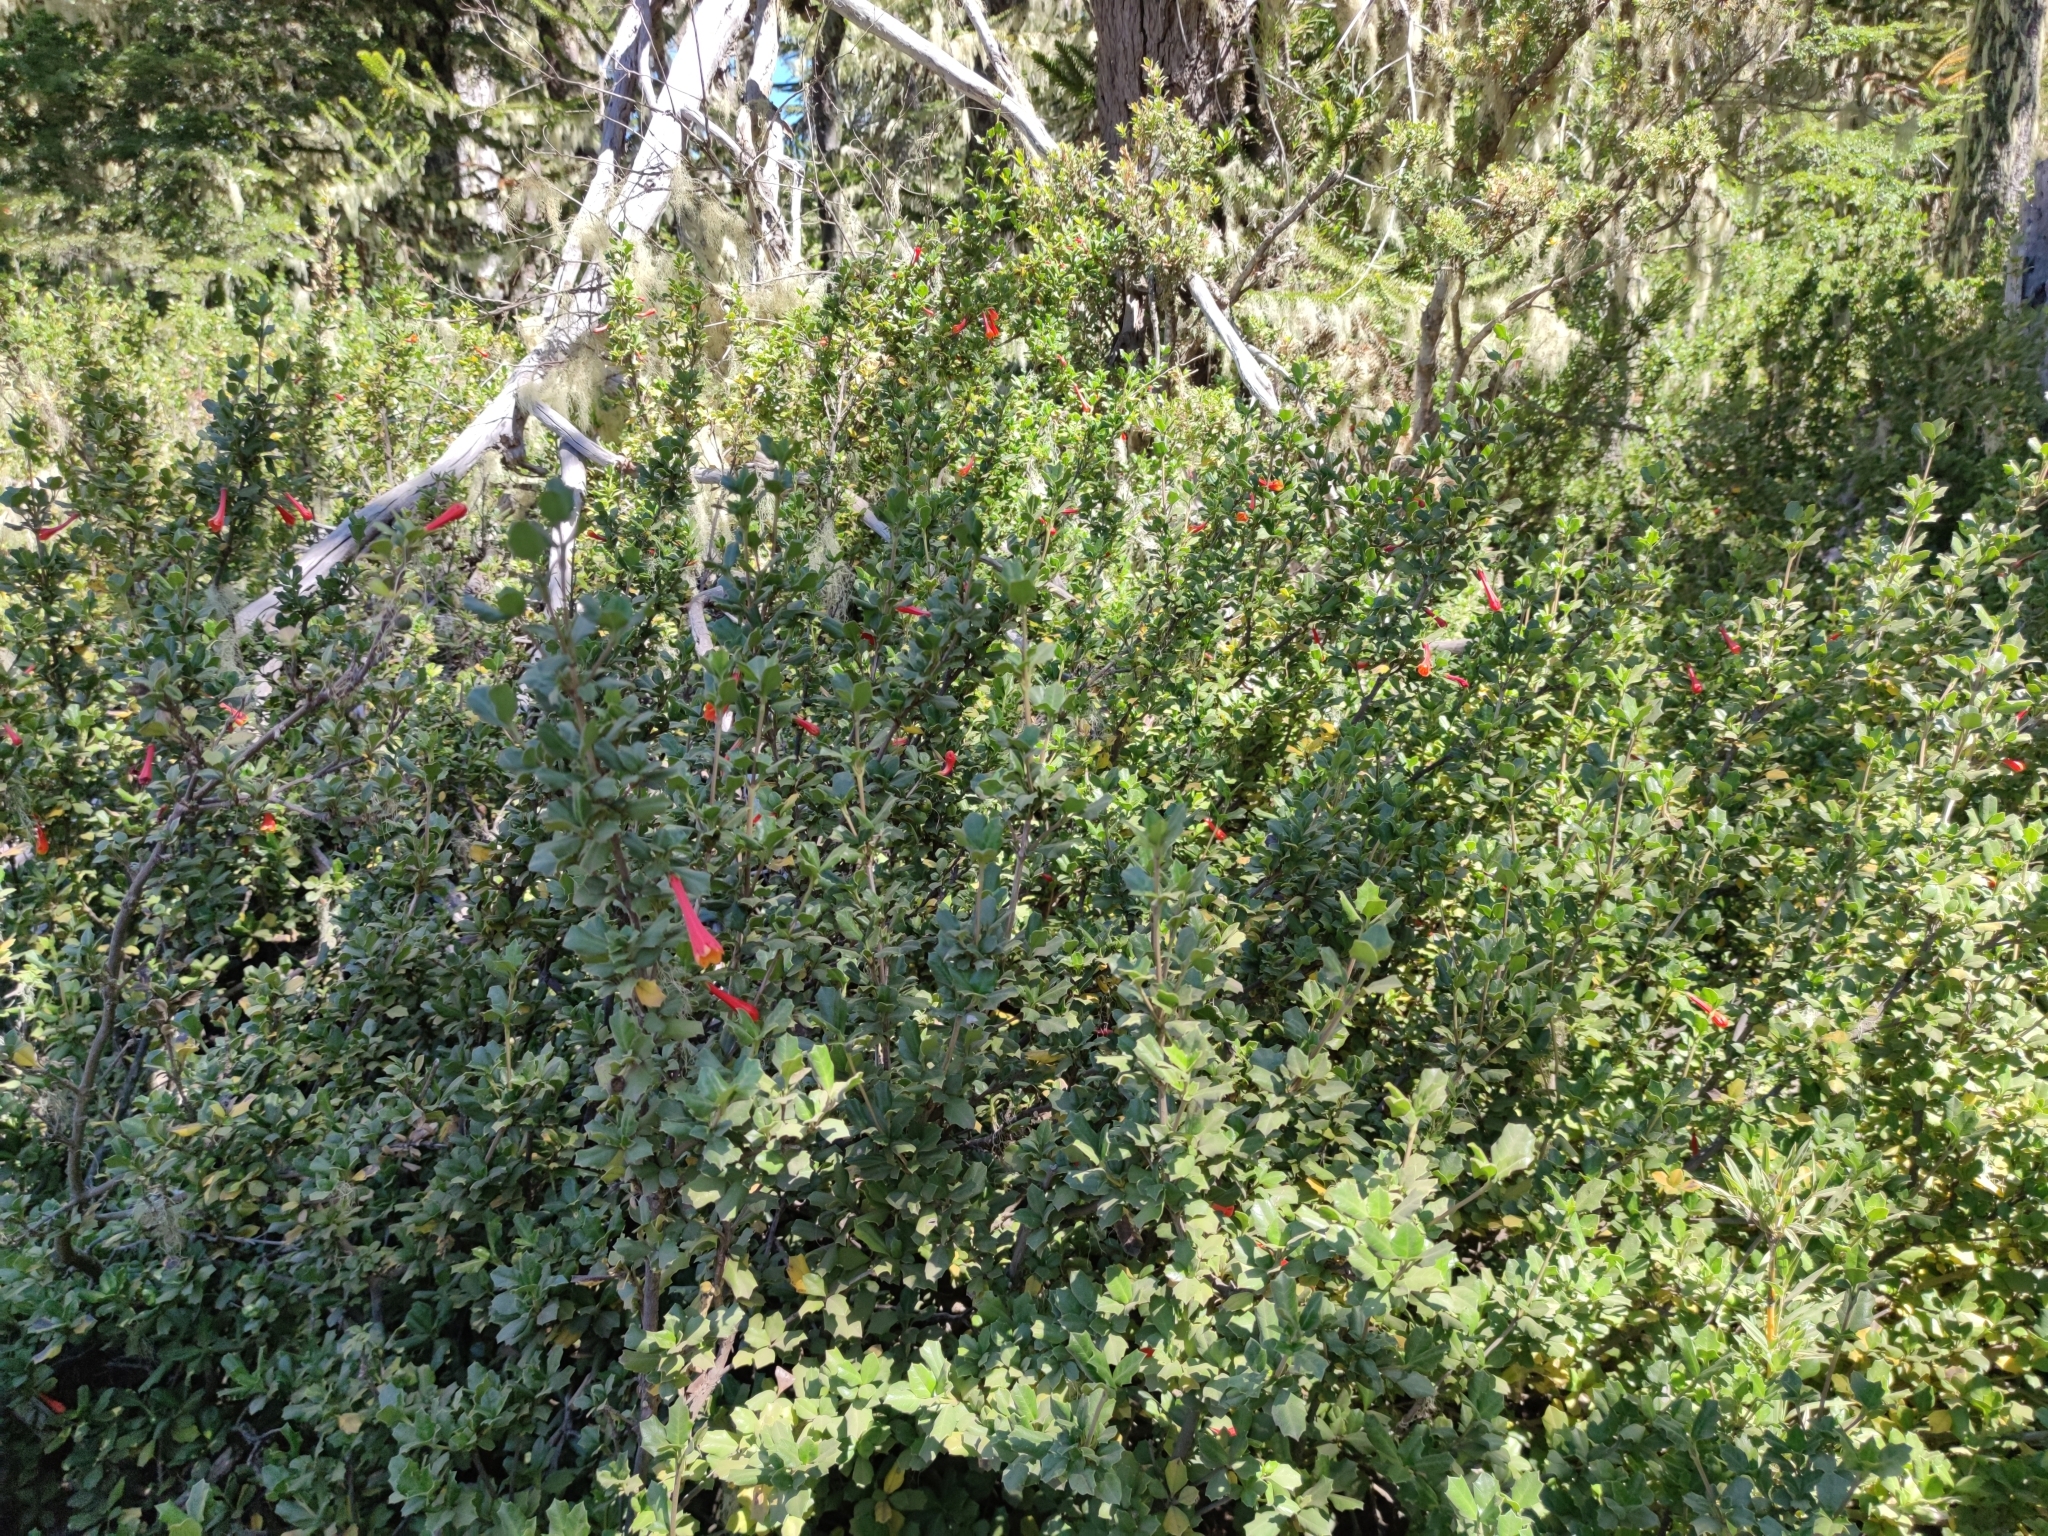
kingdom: Plantae
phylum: Tracheophyta
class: Magnoliopsida
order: Bruniales
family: Columelliaceae
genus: Desfontainia
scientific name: Desfontainia fulgens
